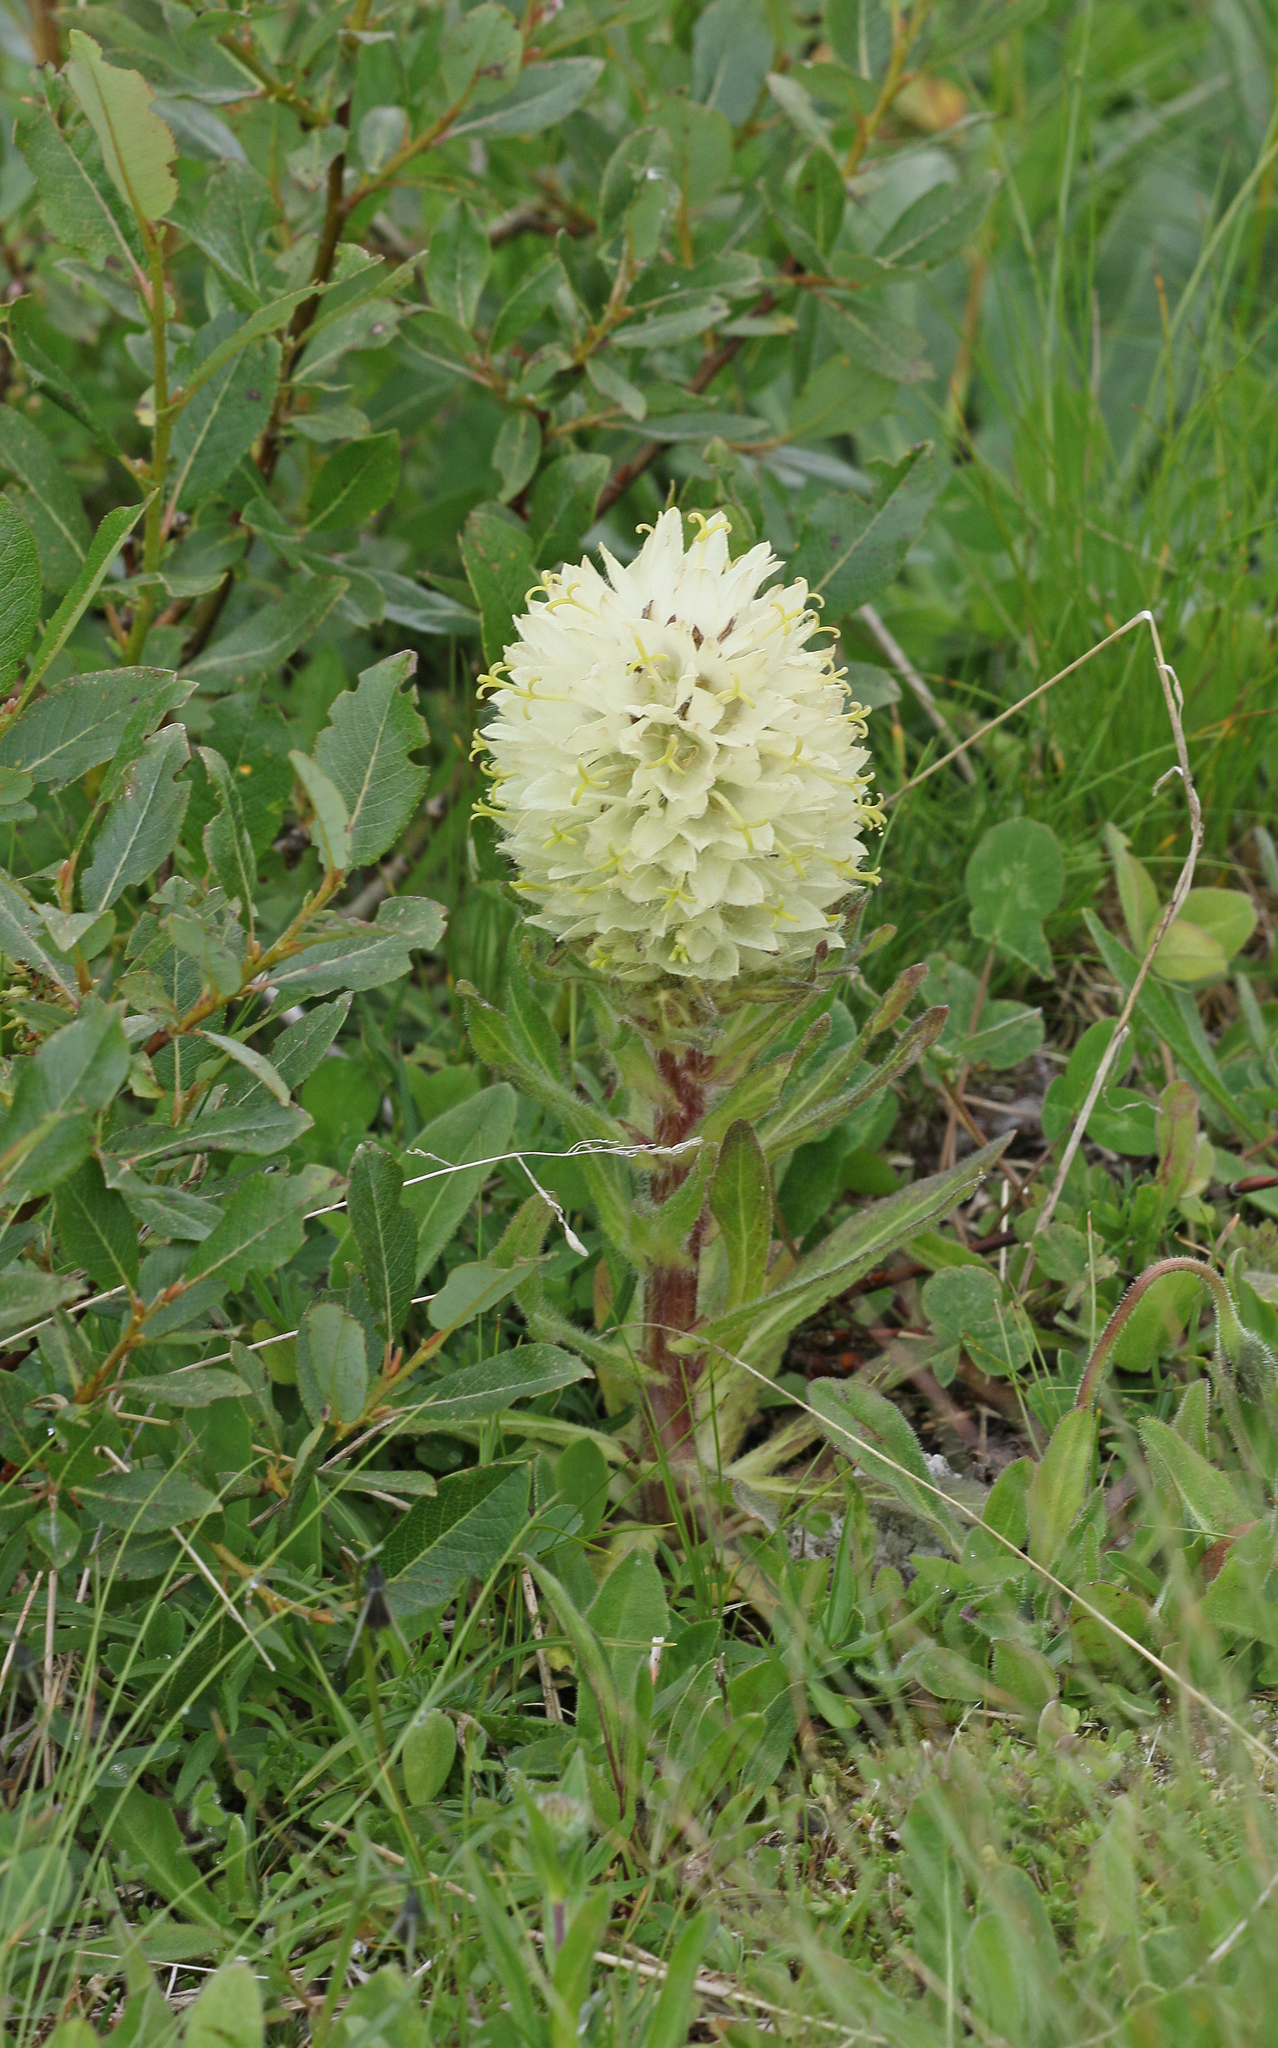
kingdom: Plantae
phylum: Tracheophyta
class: Magnoliopsida
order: Asterales
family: Campanulaceae
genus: Campanula
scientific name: Campanula thyrsoides
